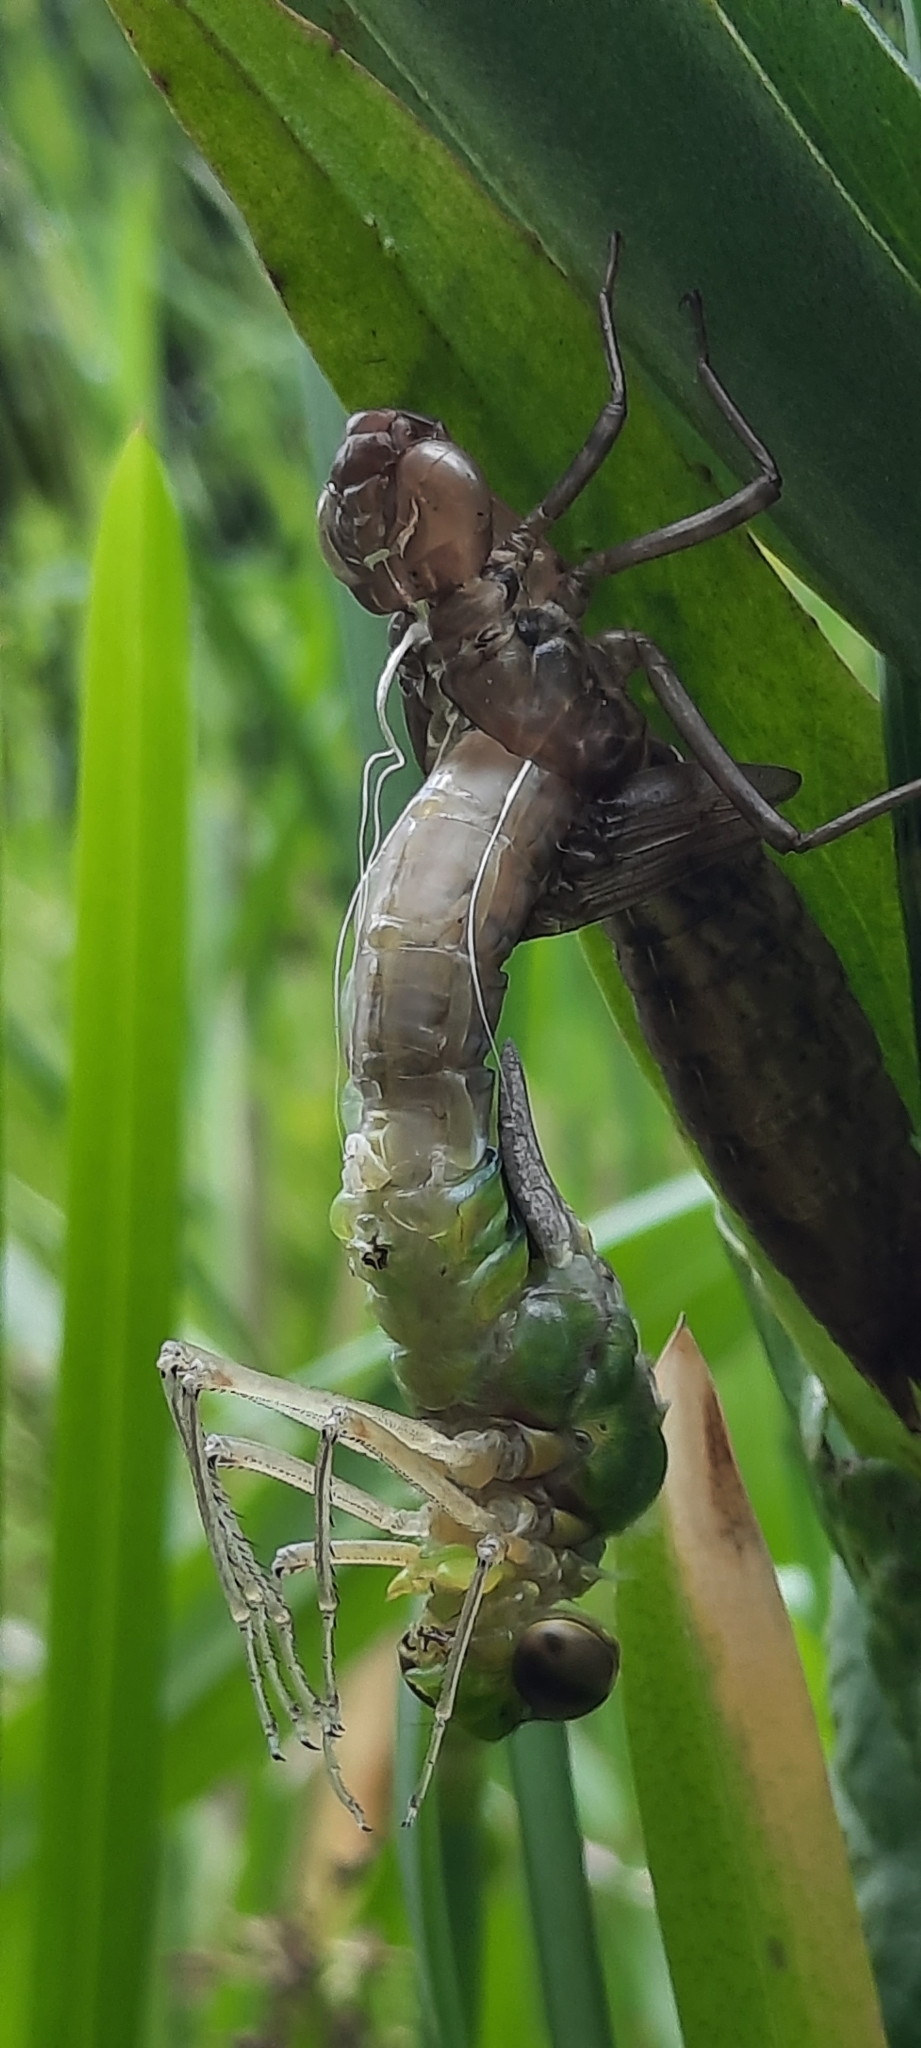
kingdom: Animalia
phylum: Arthropoda
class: Insecta
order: Odonata
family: Aeshnidae
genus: Anax
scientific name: Anax imperator
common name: Emperor dragonfly
